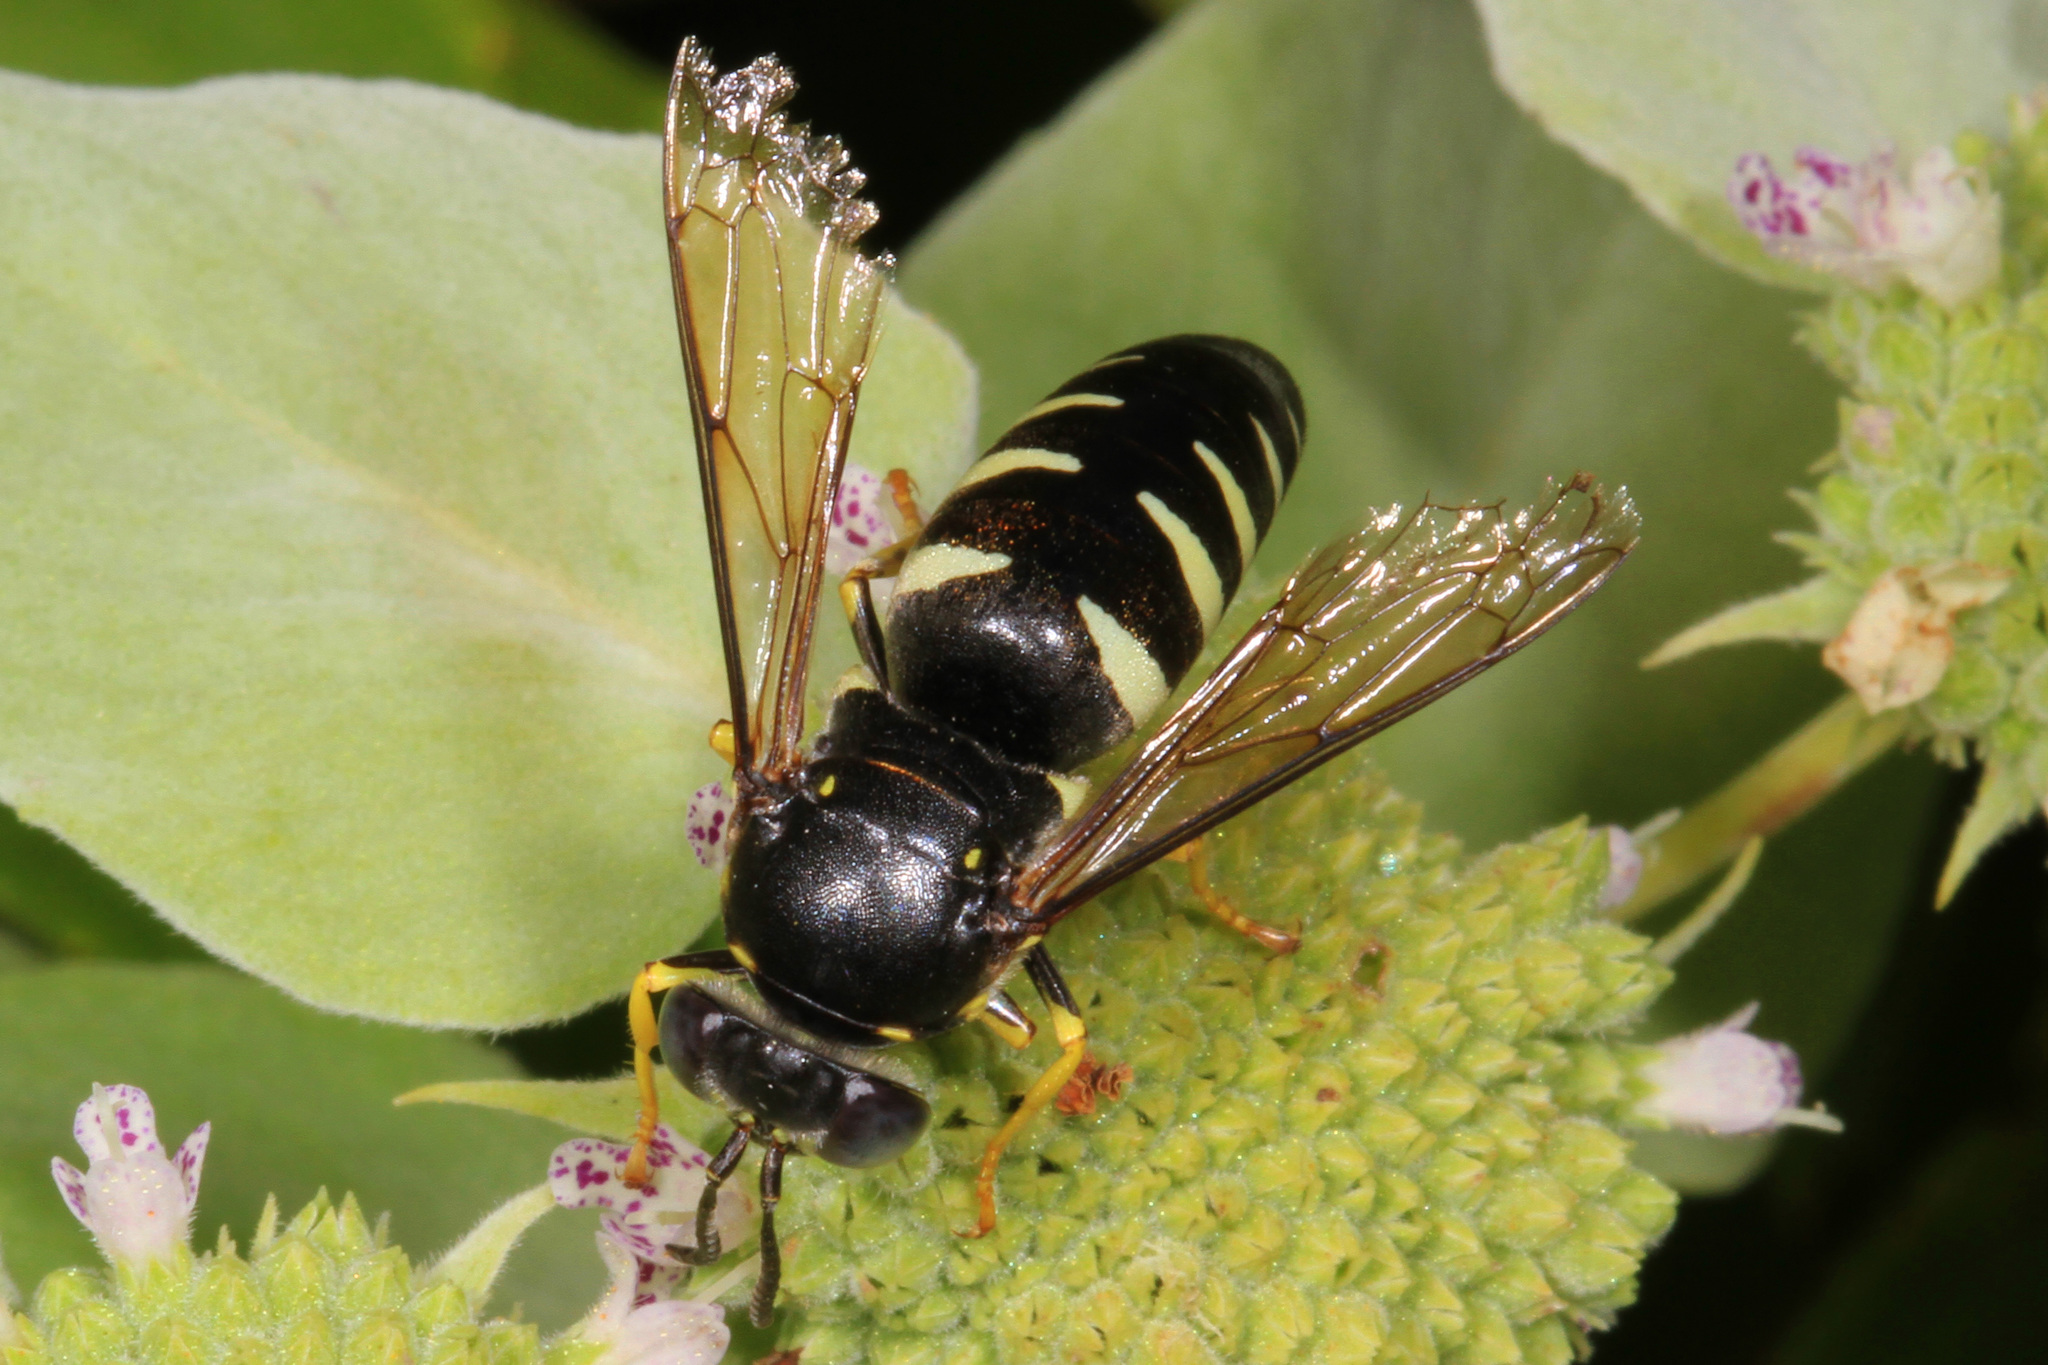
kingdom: Animalia
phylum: Arthropoda
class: Insecta
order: Hymenoptera
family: Crabronidae
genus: Bicyrtes
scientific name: Bicyrtes quadrifasciatus
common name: Four-banded stink bug hunter wasp
